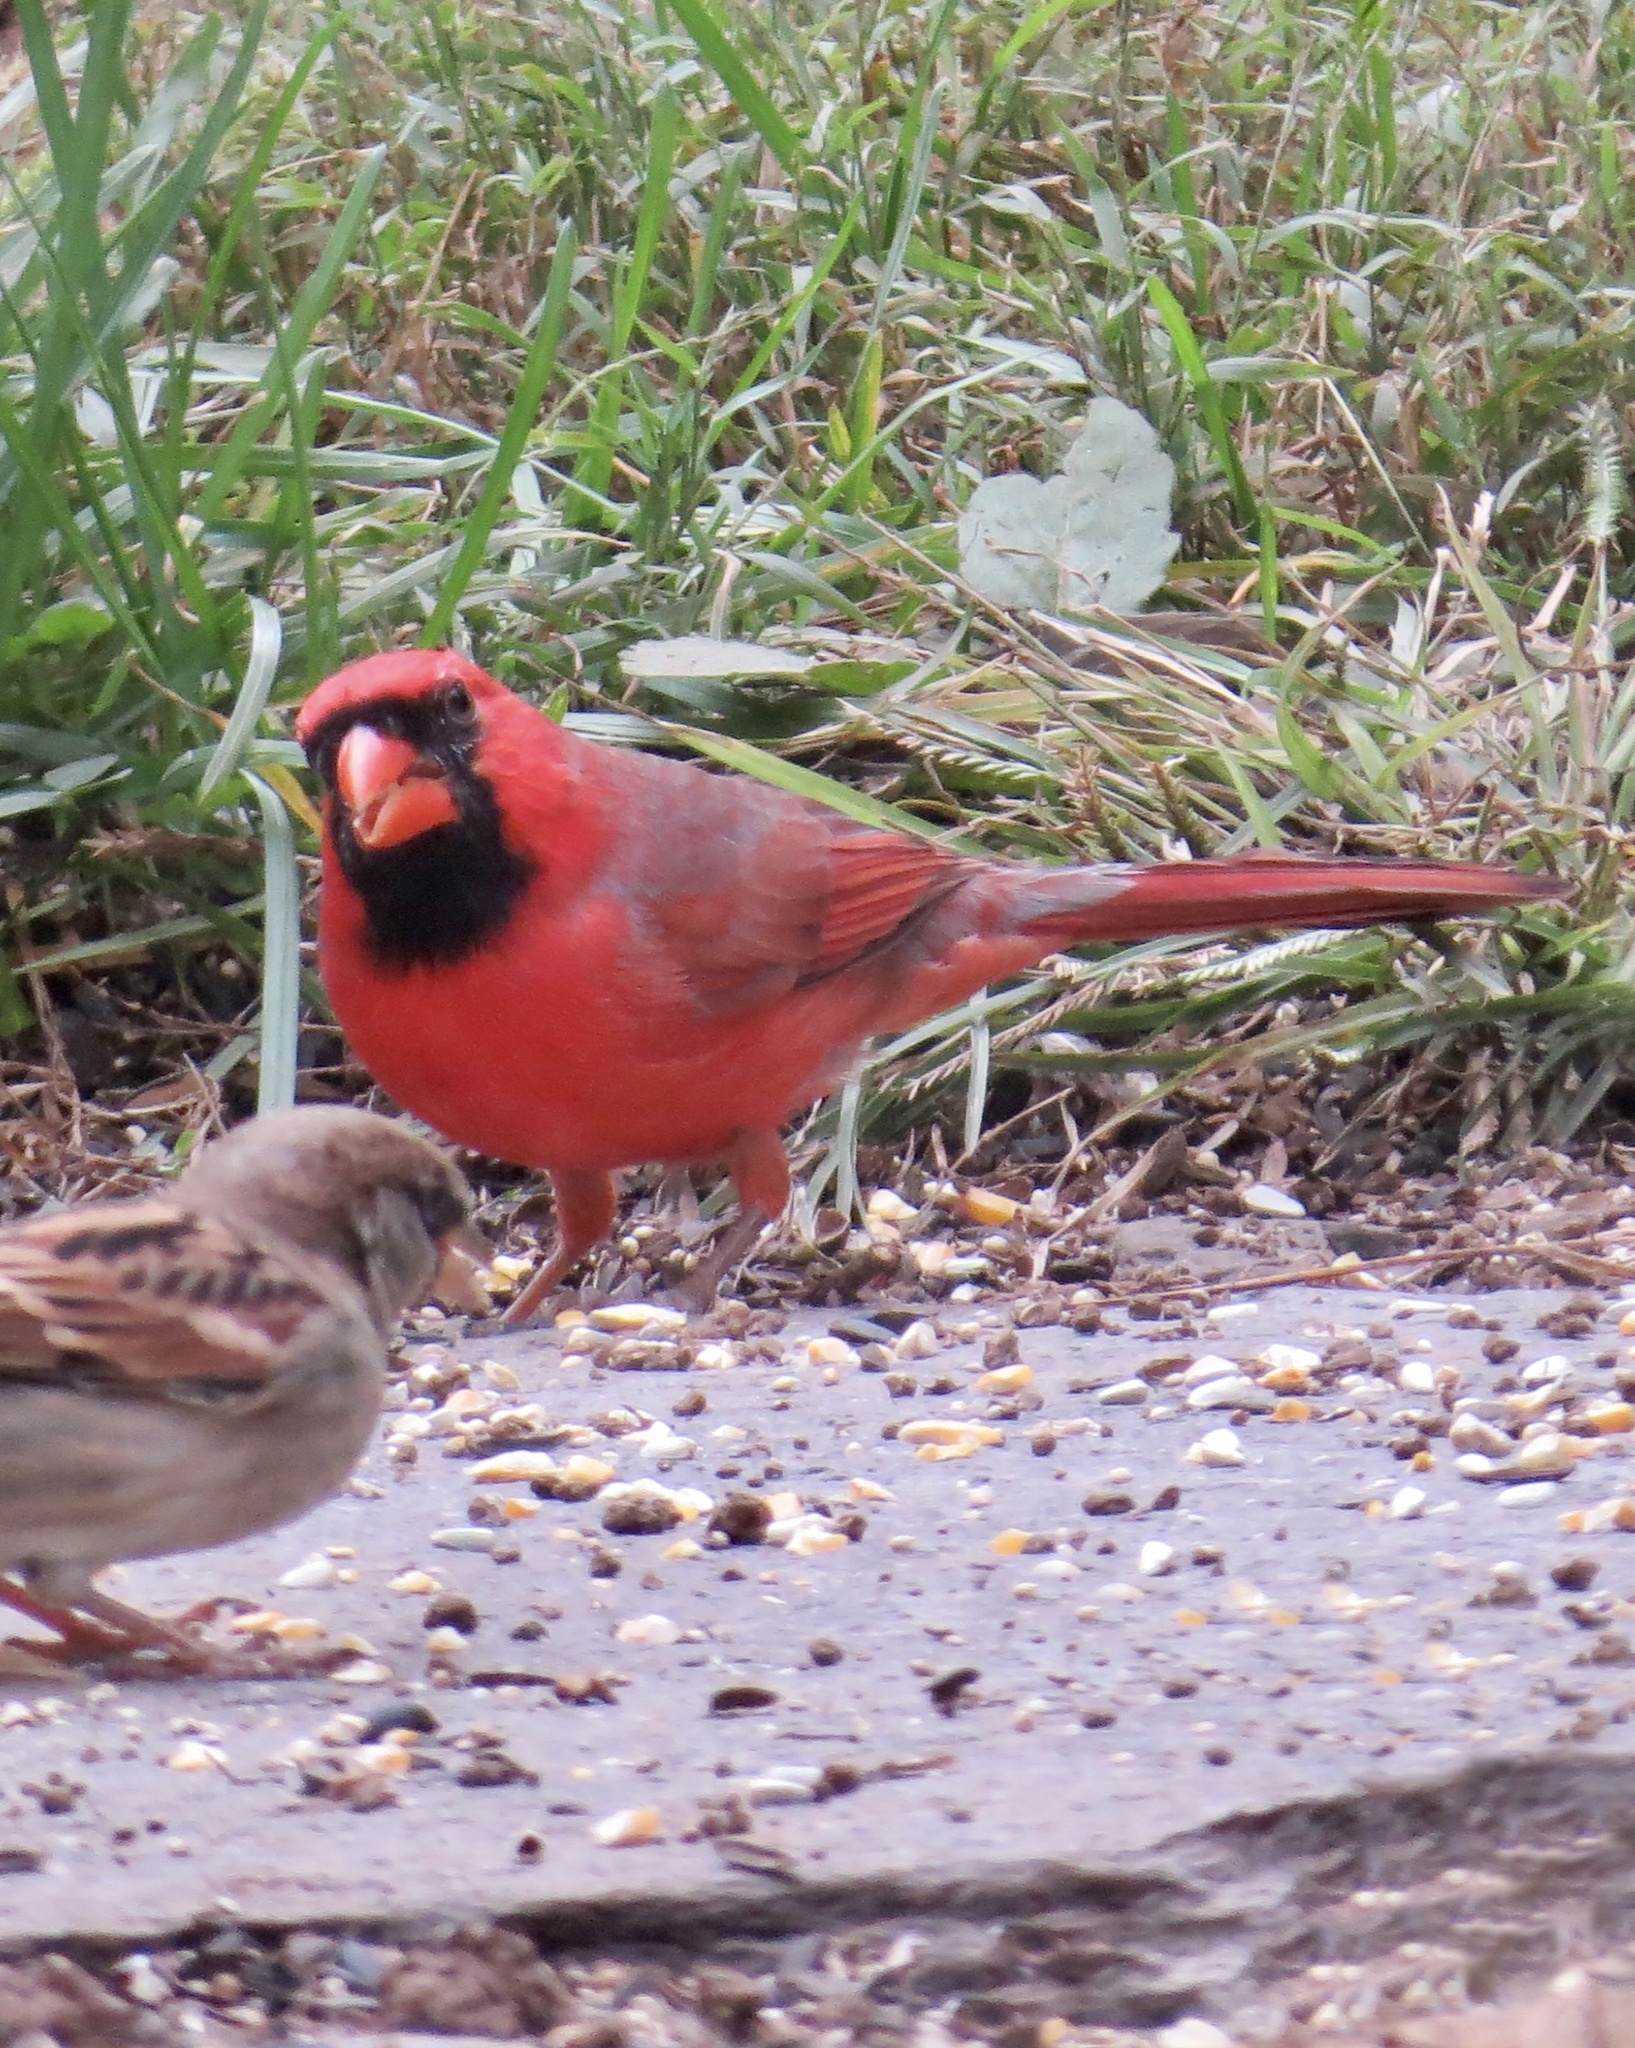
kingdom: Animalia
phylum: Chordata
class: Aves
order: Passeriformes
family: Cardinalidae
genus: Cardinalis
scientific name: Cardinalis cardinalis
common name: Northern cardinal
